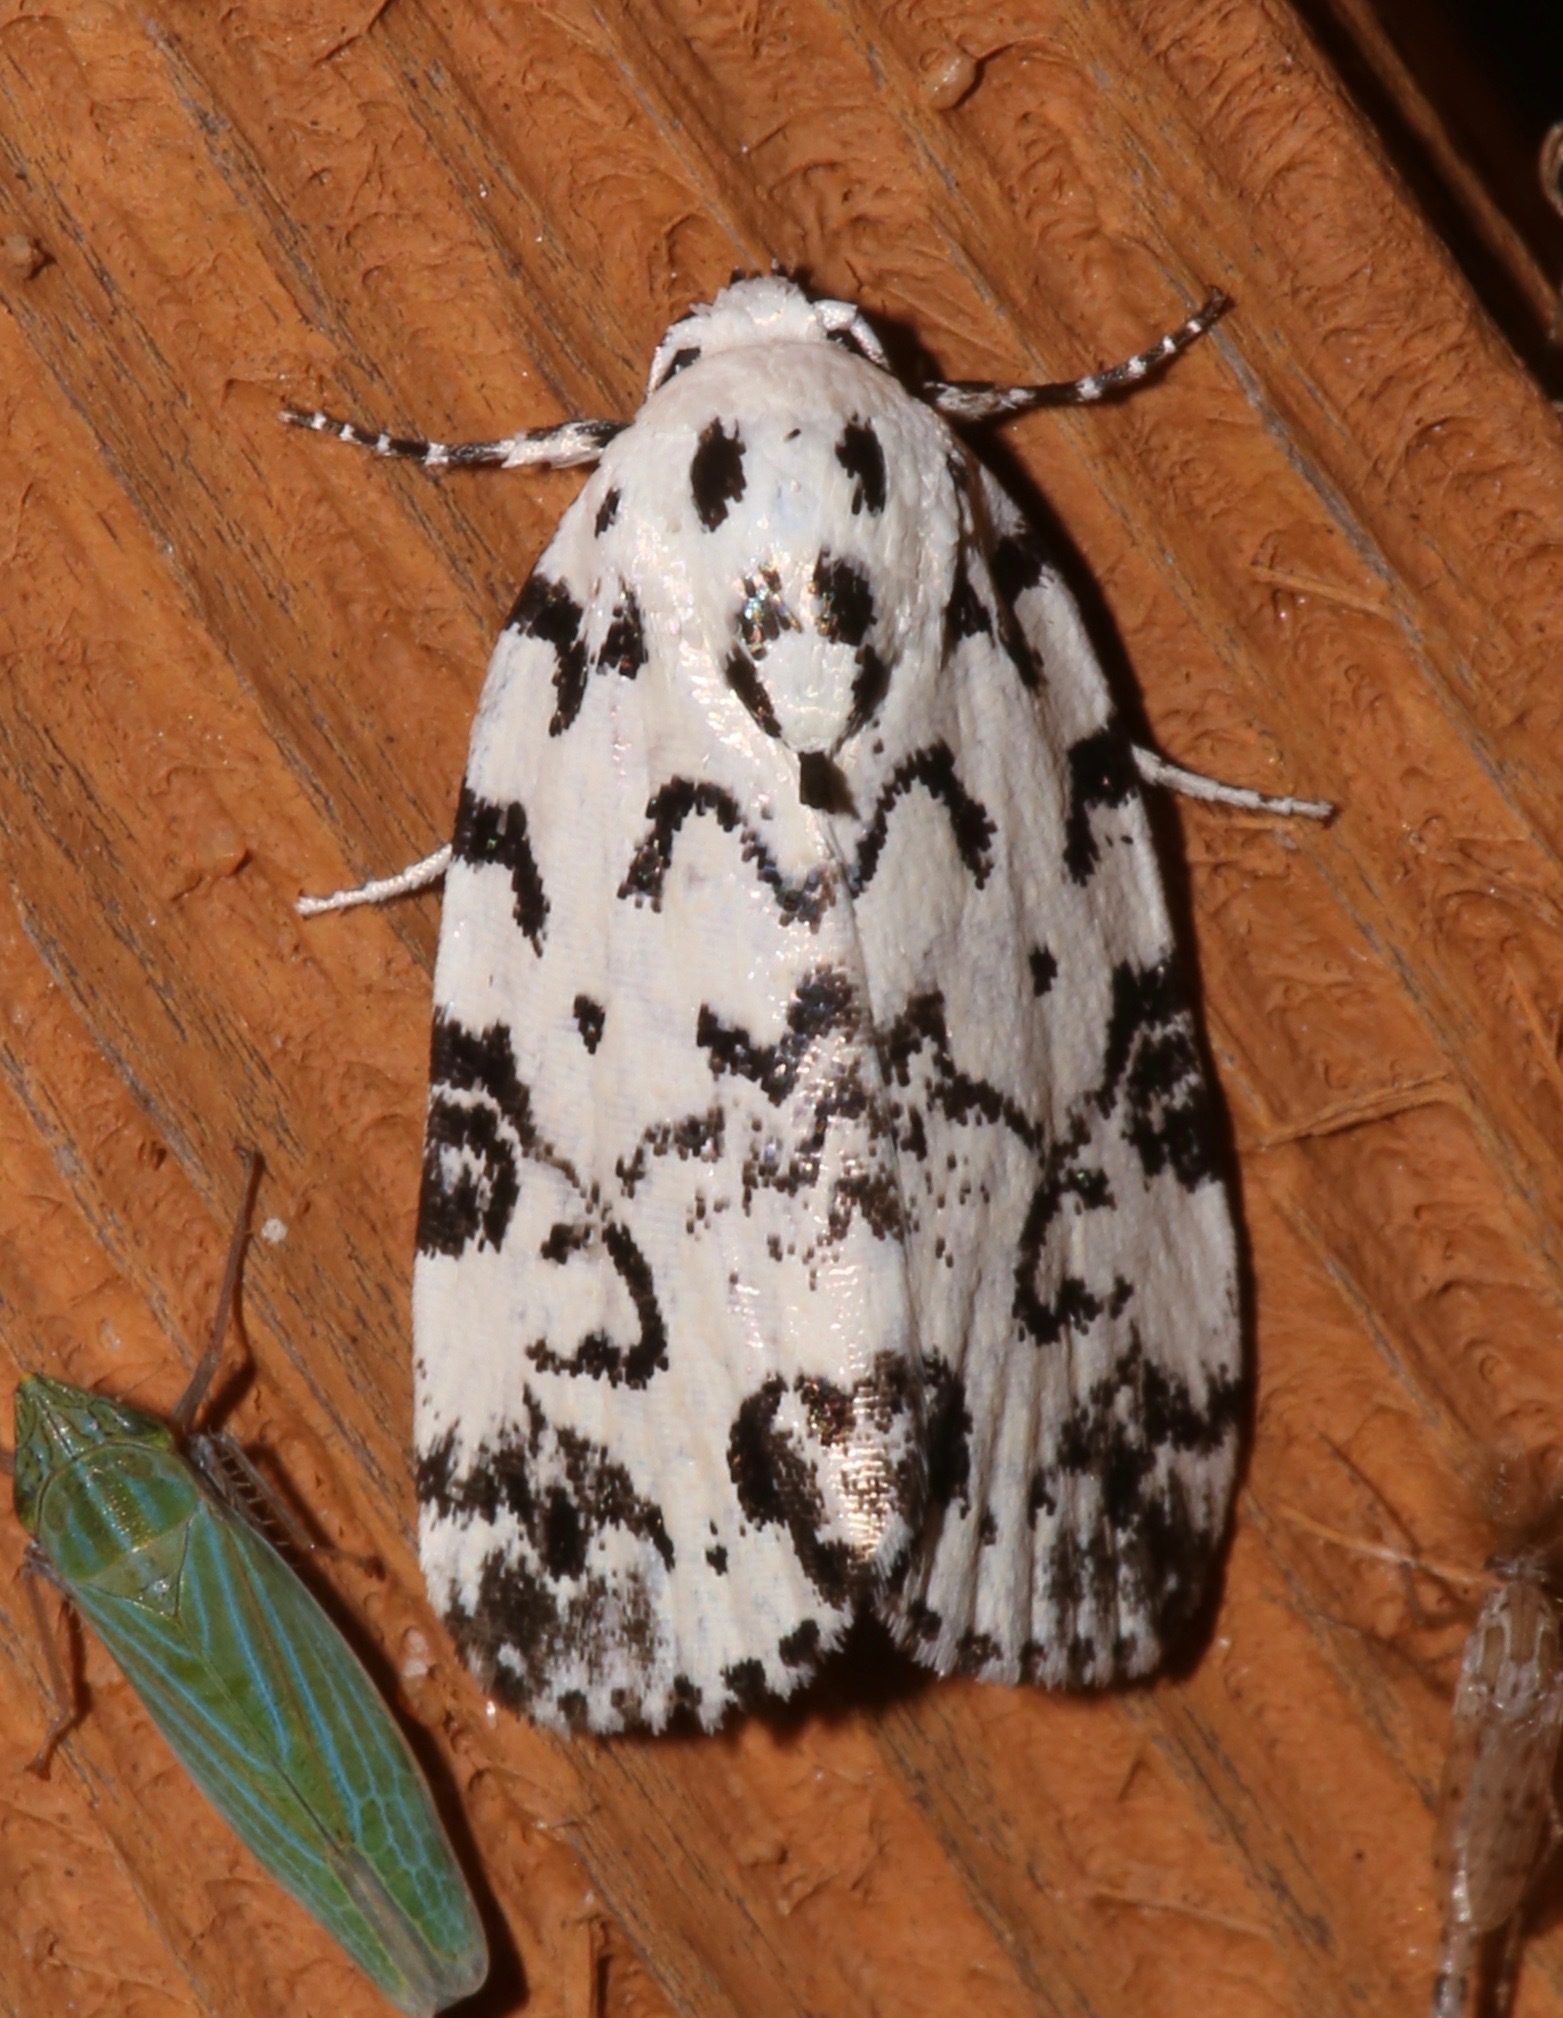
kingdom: Animalia
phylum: Arthropoda
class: Insecta
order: Lepidoptera
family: Noctuidae
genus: Polygrammate
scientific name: Polygrammate hebraeicum
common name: Hebrew moth
